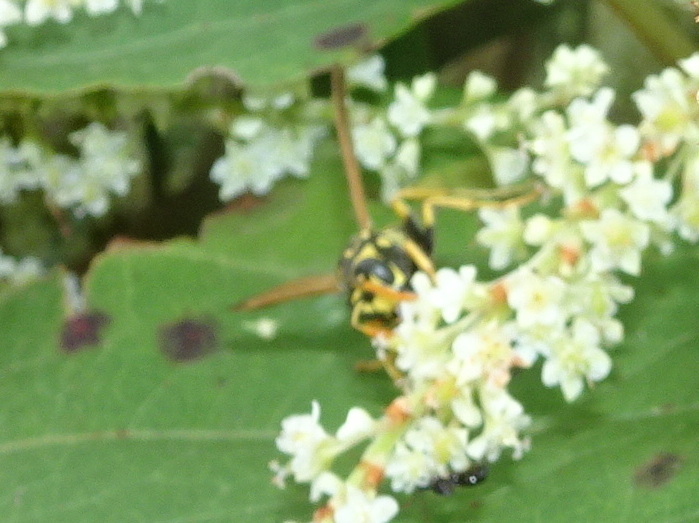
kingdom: Animalia
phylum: Arthropoda
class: Insecta
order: Hymenoptera
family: Eumenidae
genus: Polistes
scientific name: Polistes dominula
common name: Paper wasp
